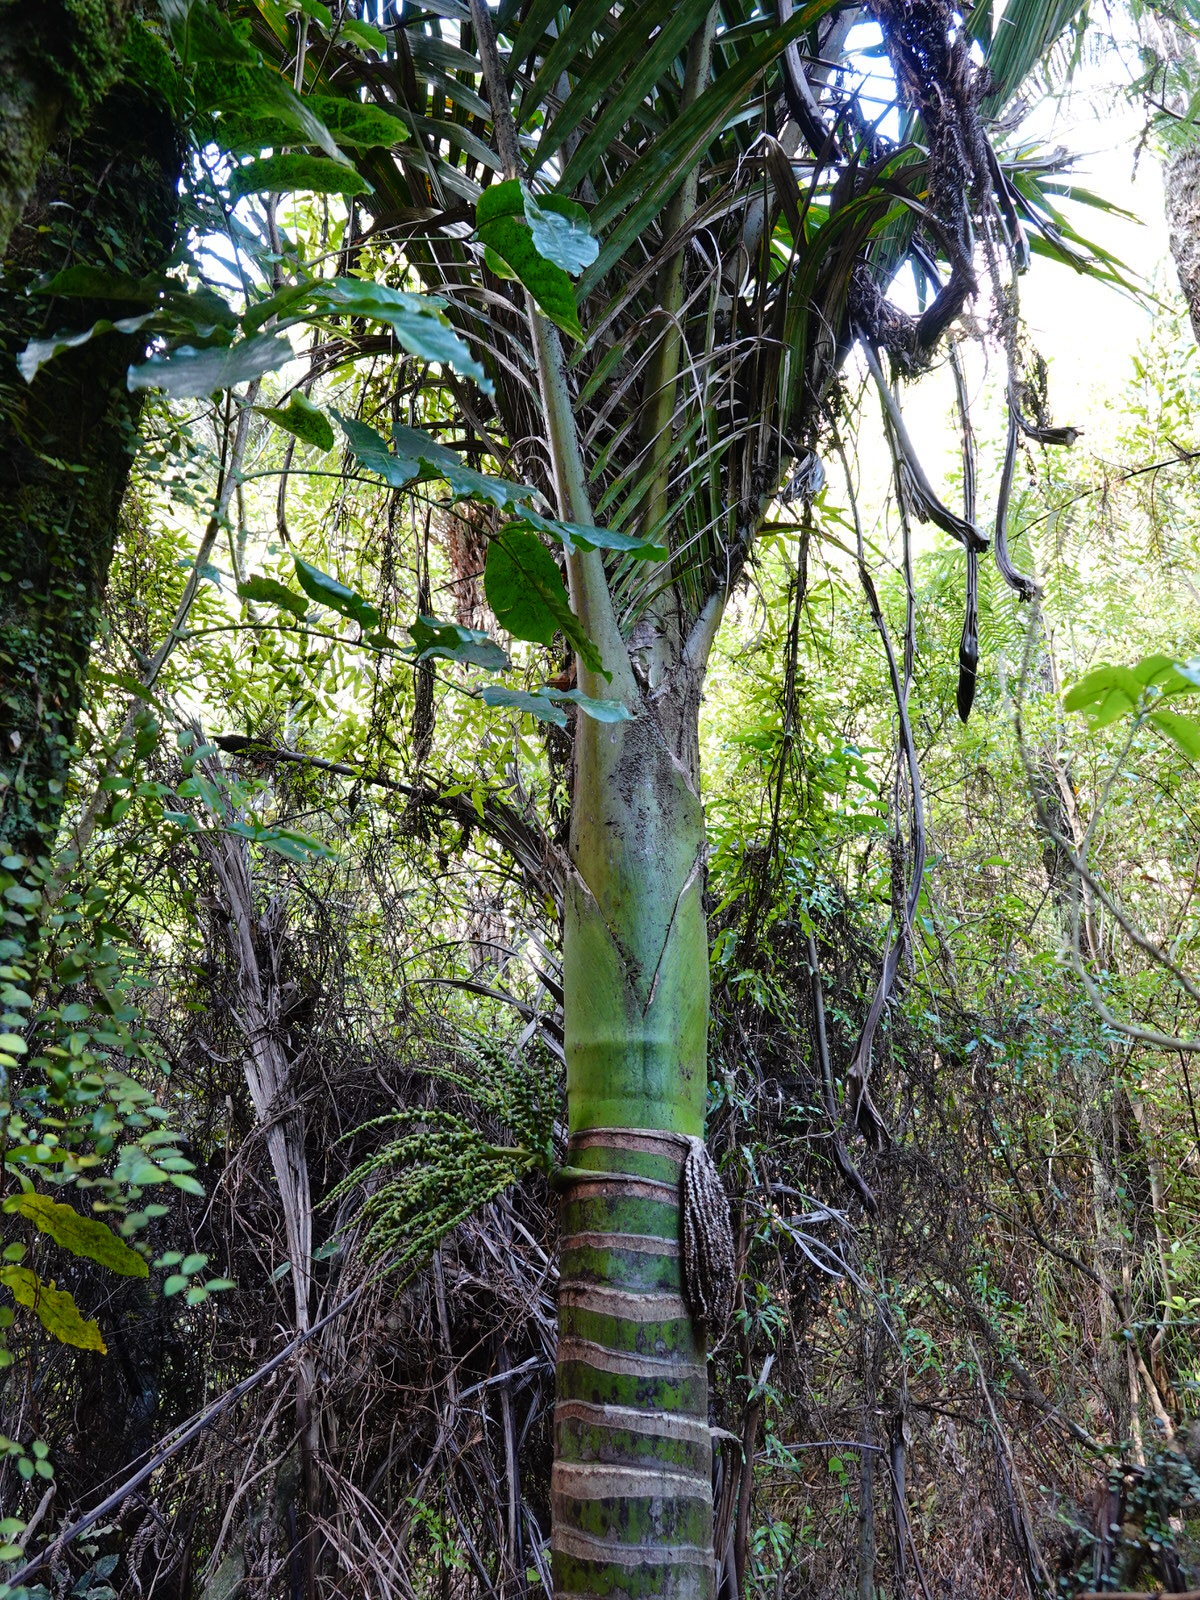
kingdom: Plantae
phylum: Tracheophyta
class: Liliopsida
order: Arecales
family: Arecaceae
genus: Rhopalostylis
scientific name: Rhopalostylis sapida
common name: Feather-duster palm
